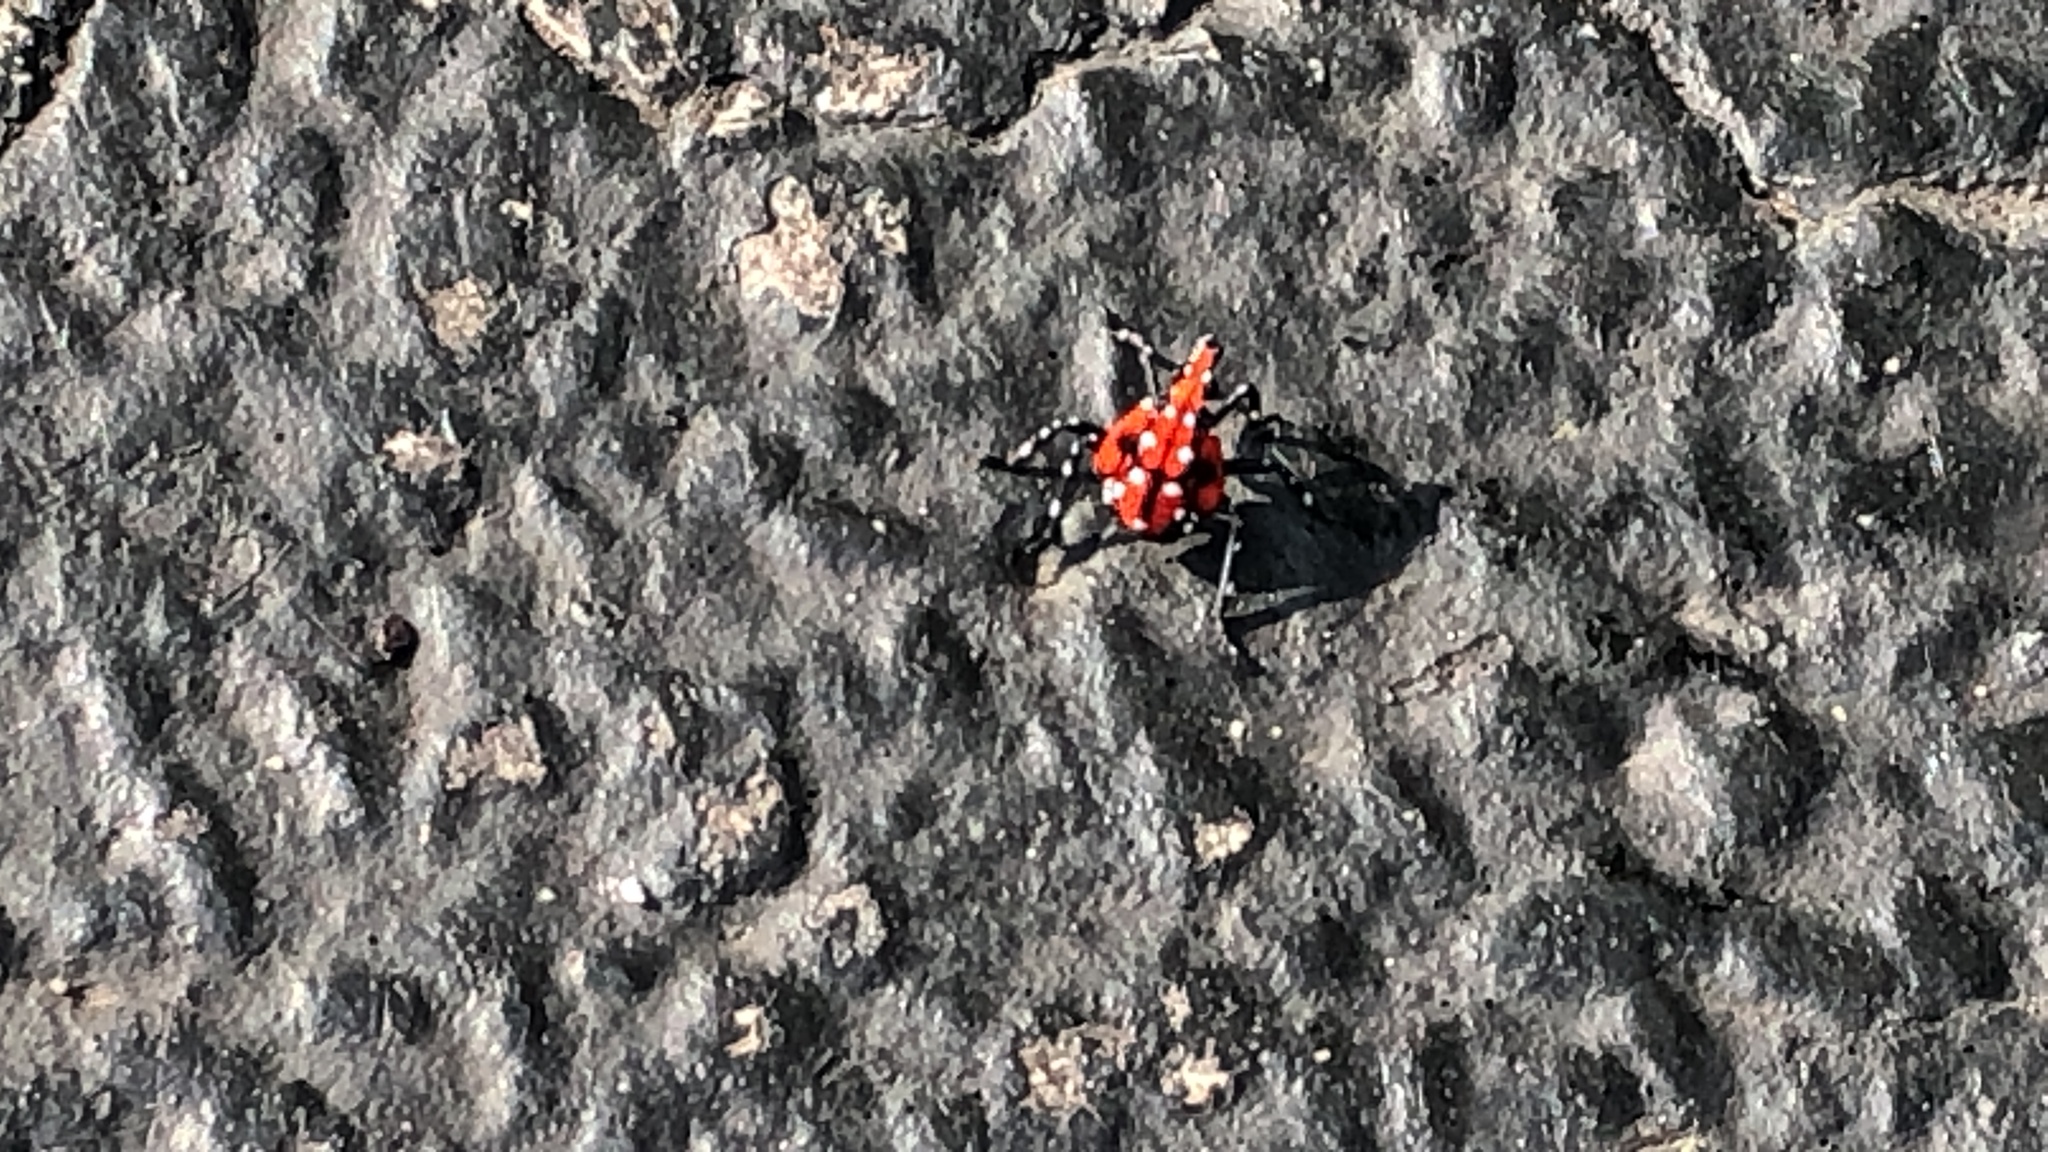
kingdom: Animalia
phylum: Arthropoda
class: Insecta
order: Hemiptera
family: Fulgoridae
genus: Lycorma
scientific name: Lycorma delicatula
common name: Spotted lanternfly
